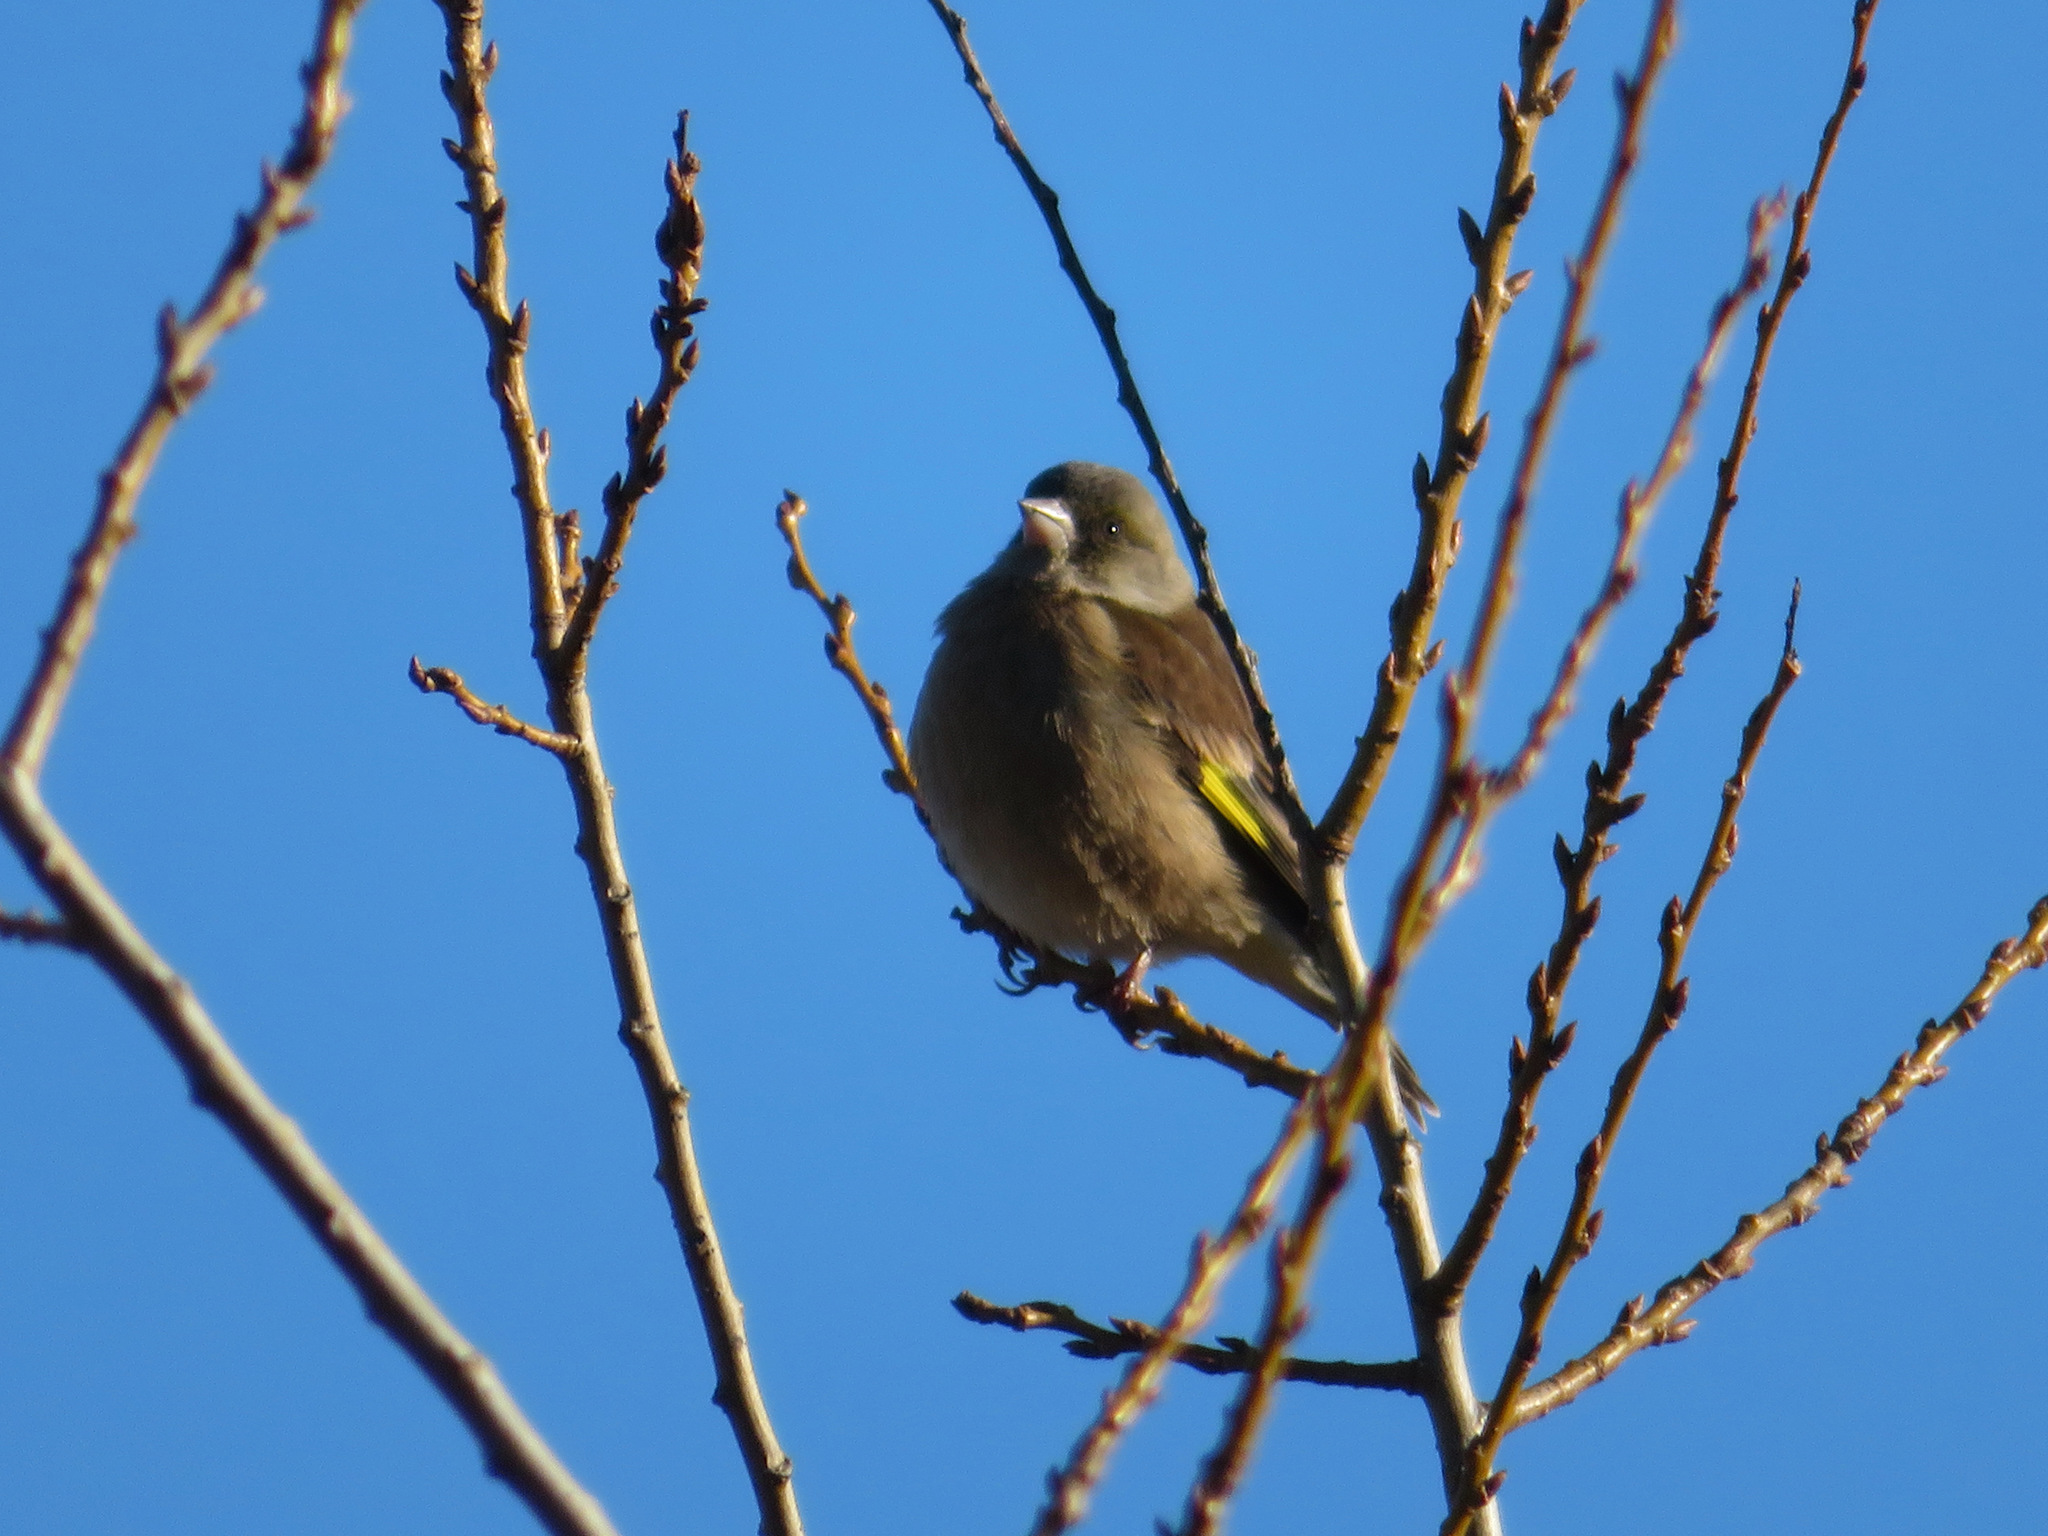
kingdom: Plantae
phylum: Tracheophyta
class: Liliopsida
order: Poales
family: Poaceae
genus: Chloris
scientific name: Chloris sinica
